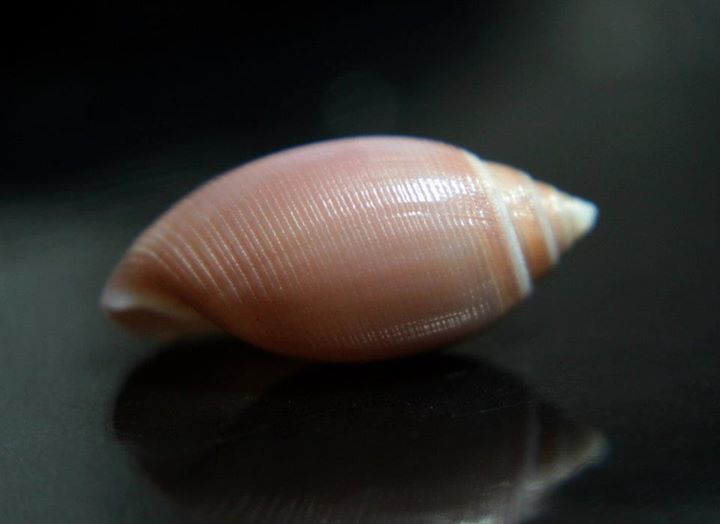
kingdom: Animalia
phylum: Mollusca
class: Gastropoda
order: Cephalaspidea
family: Acteonidae
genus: Acteon
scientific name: Acteon tornatilis
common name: European acteon
